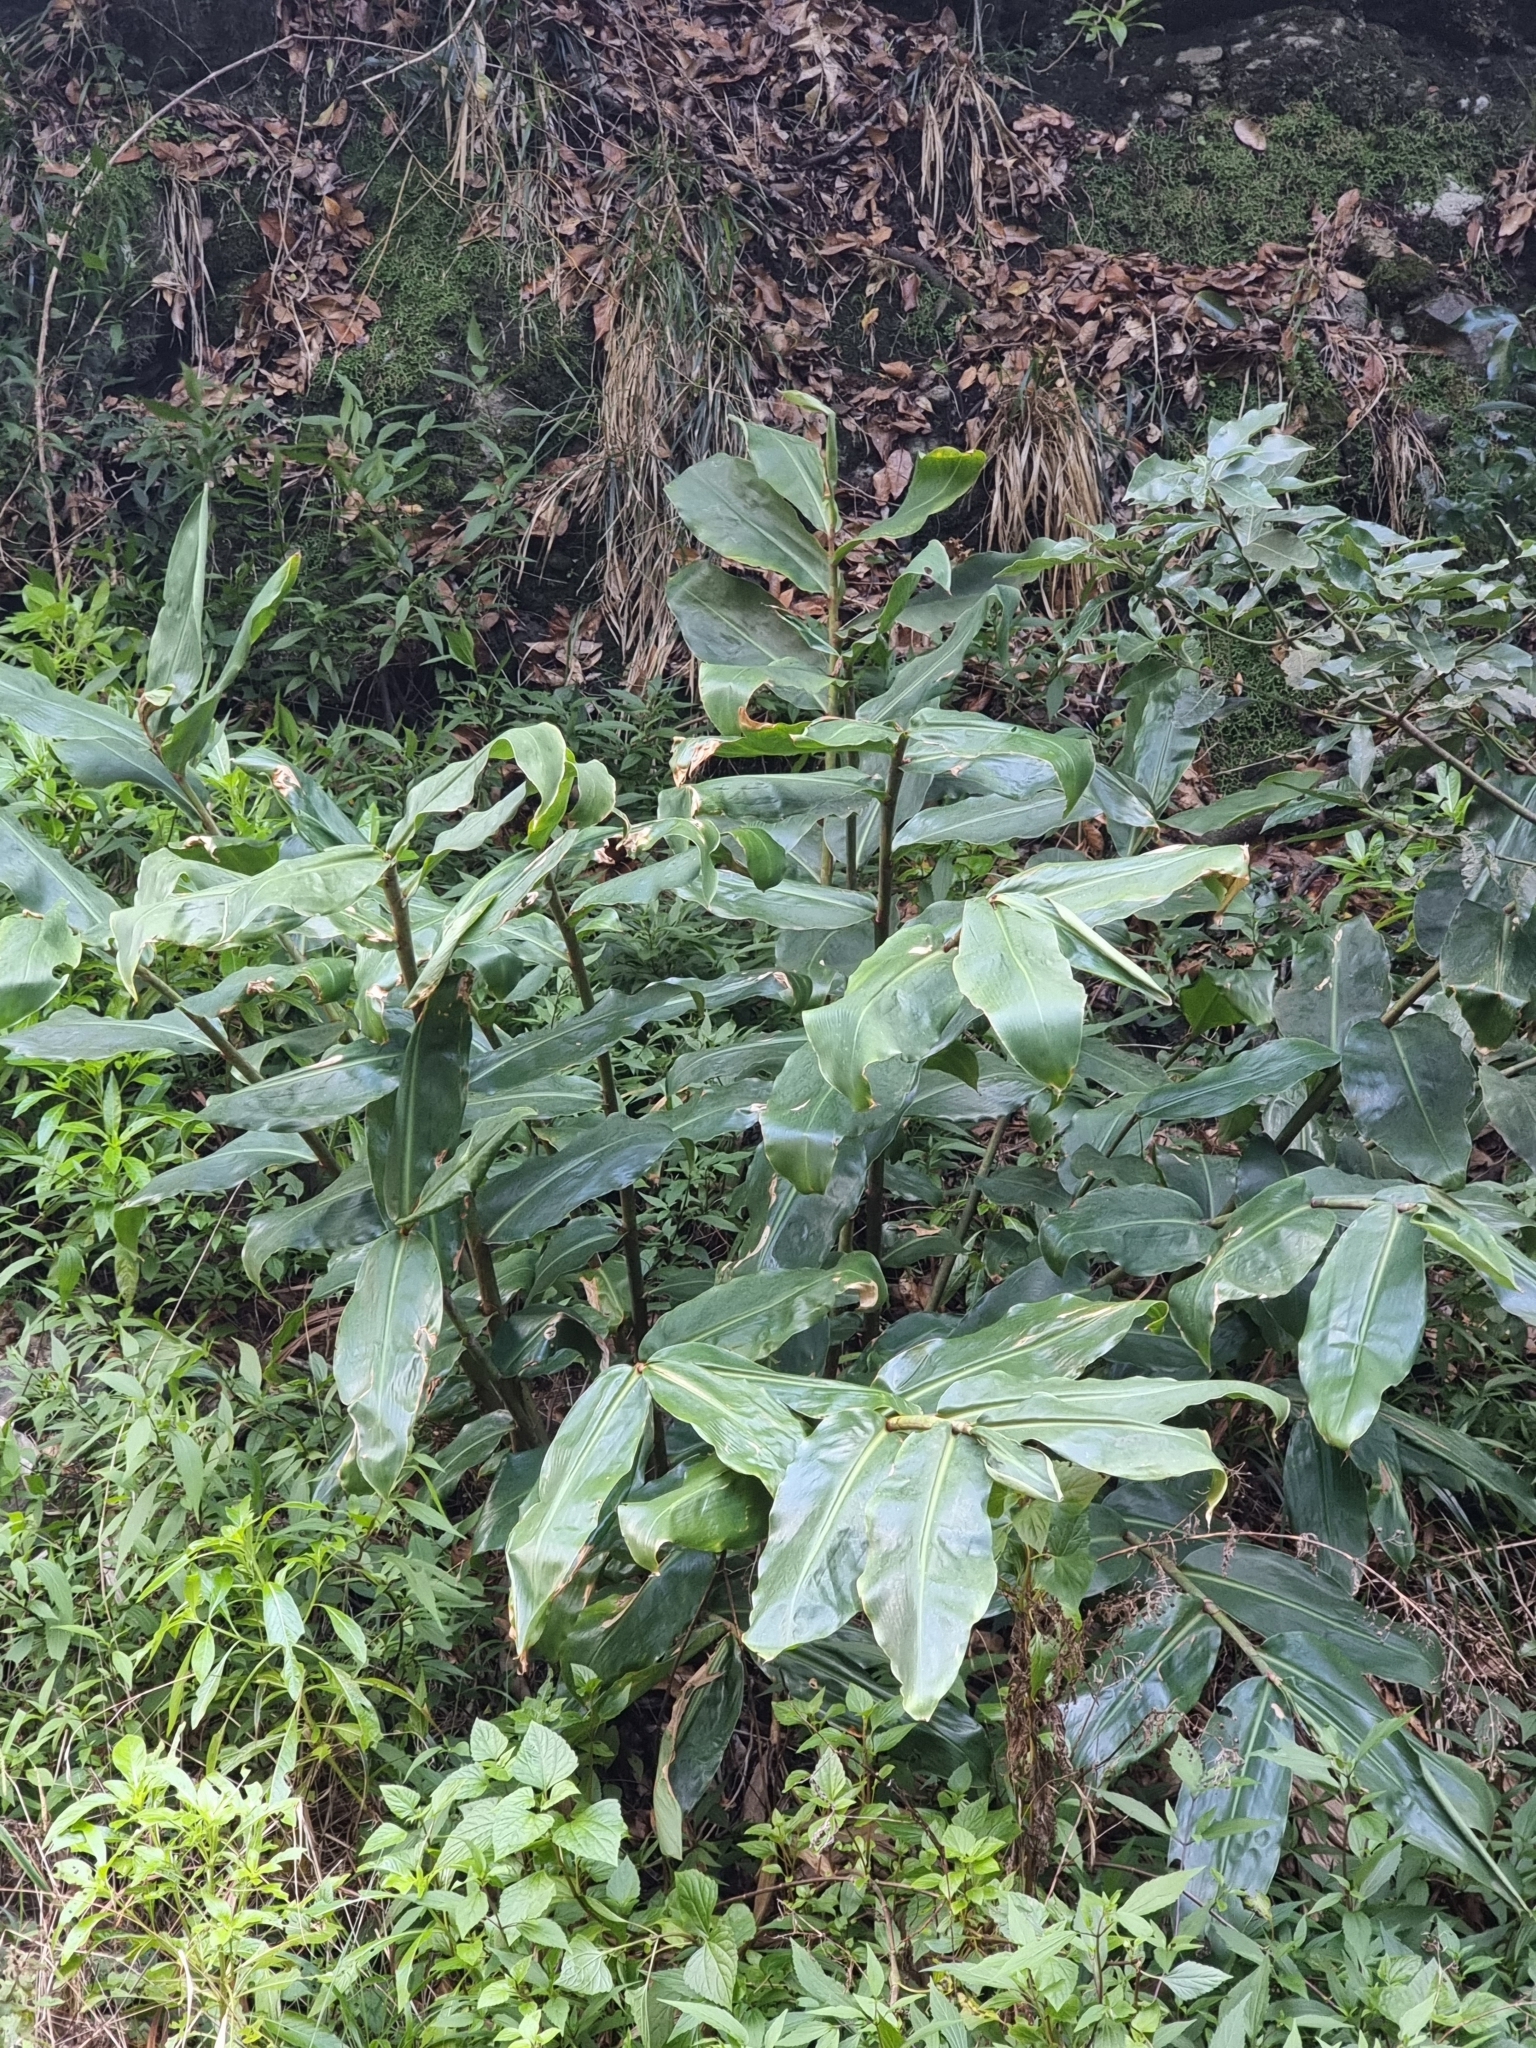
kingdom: Plantae
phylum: Tracheophyta
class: Liliopsida
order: Zingiberales
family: Zingiberaceae
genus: Hedychium
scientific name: Hedychium gardnerianum
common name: Himalayan ginger
